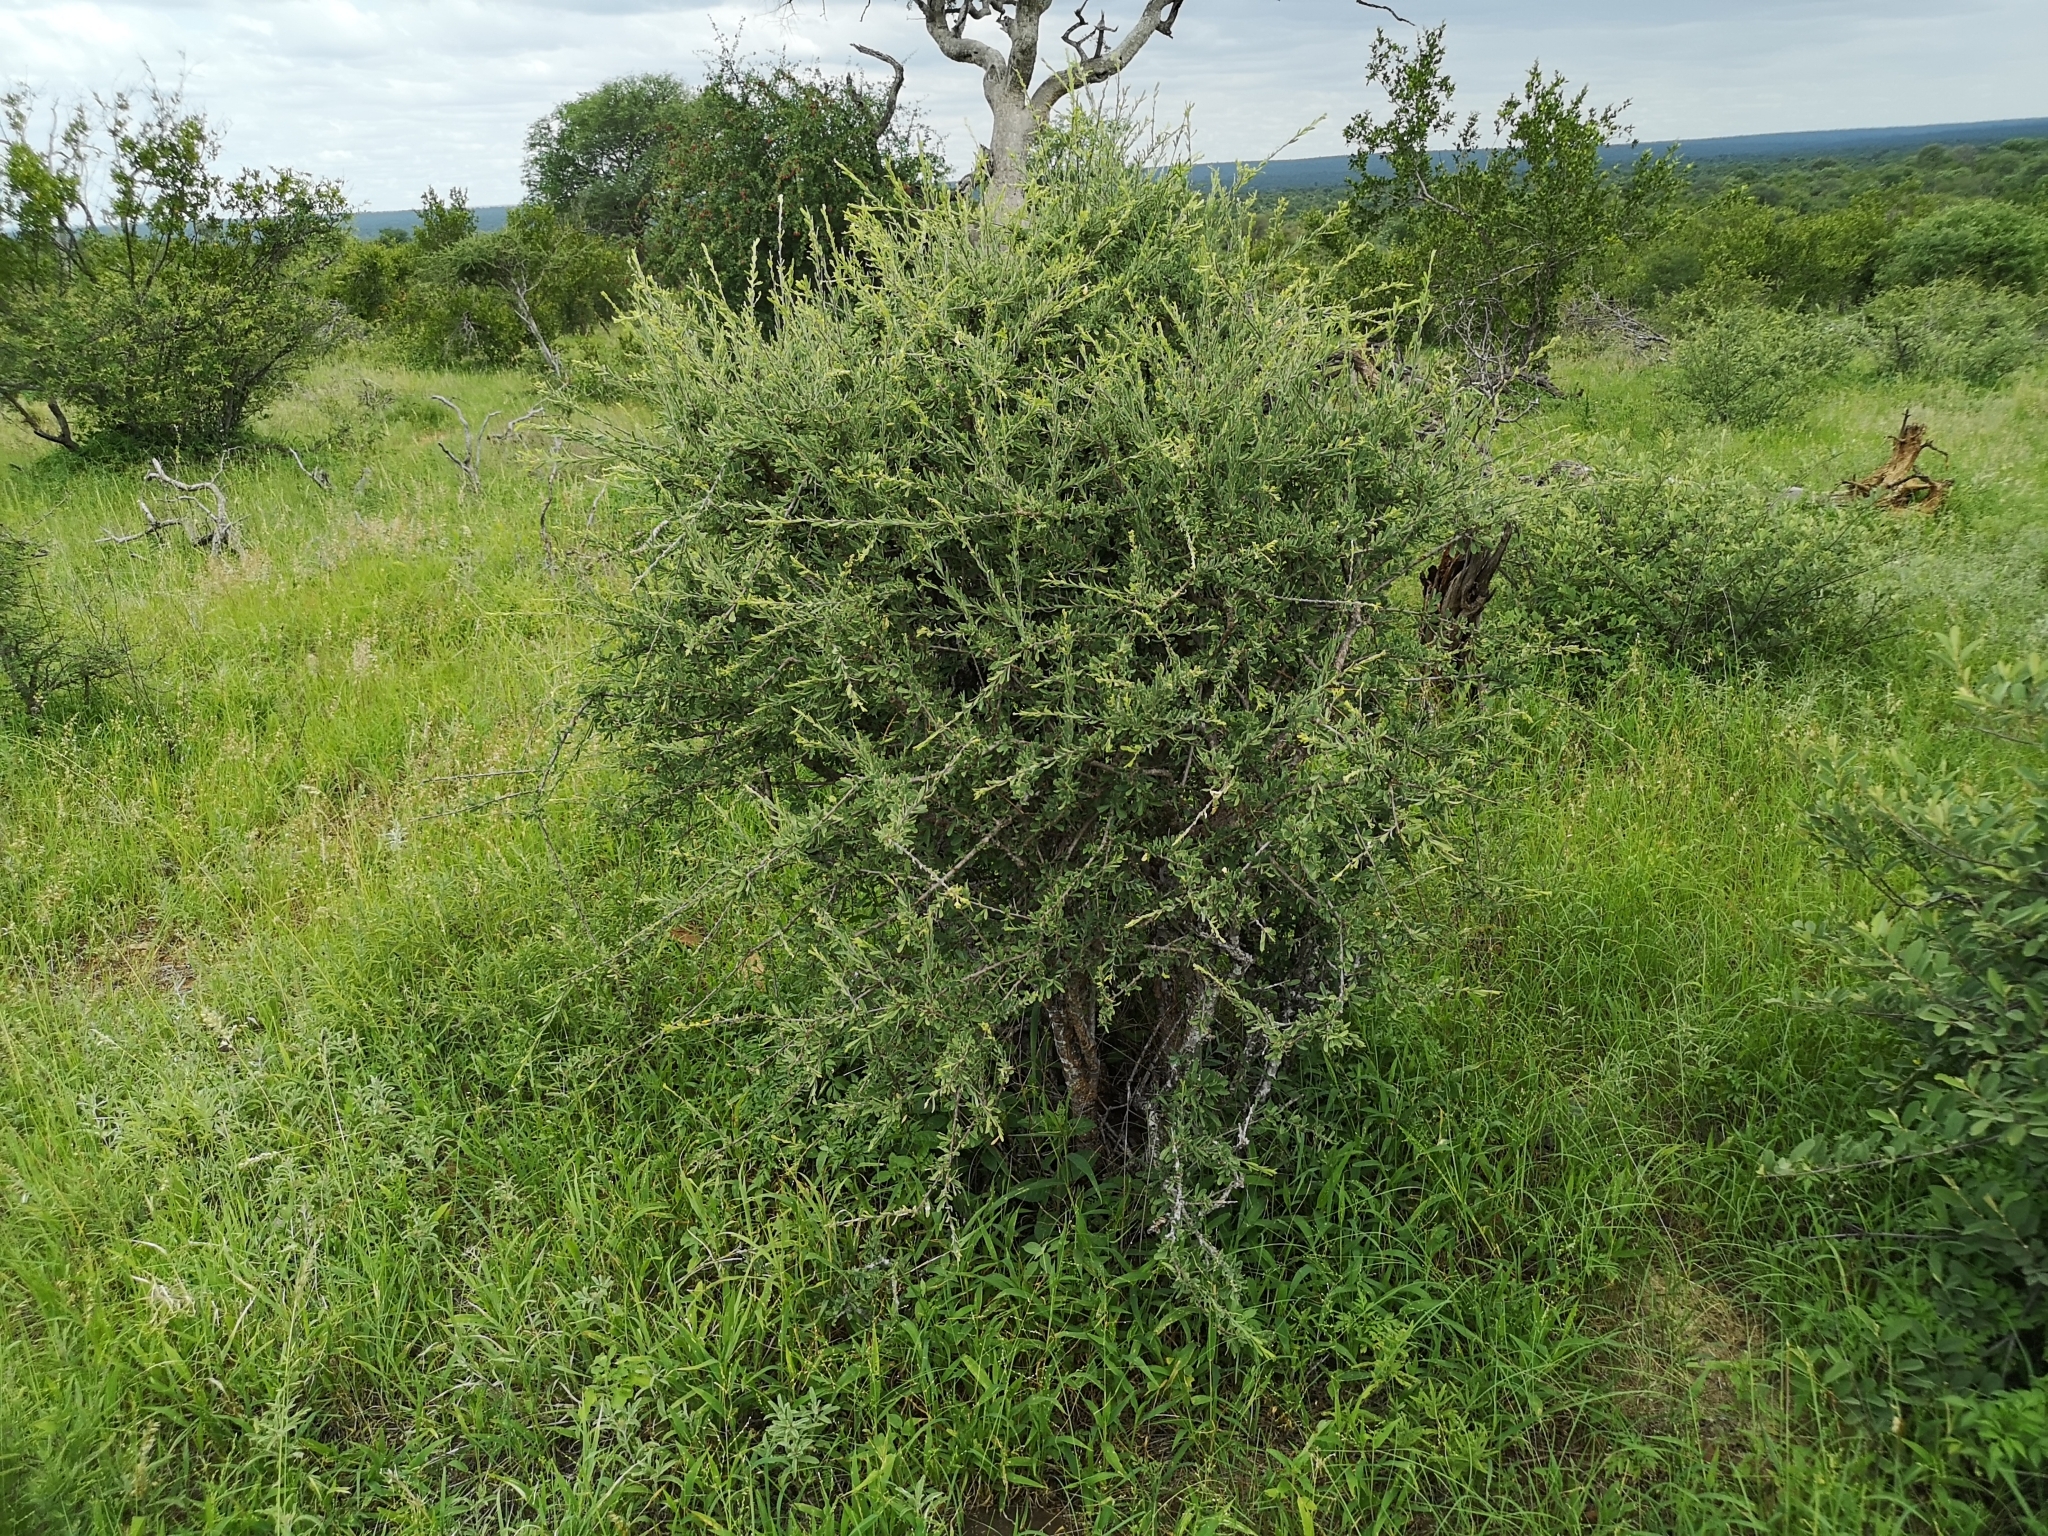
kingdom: Plantae
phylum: Tracheophyta
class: Magnoliopsida
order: Brassicales
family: Capparaceae
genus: Boscia
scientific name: Boscia albitrunca
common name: Caper bush
